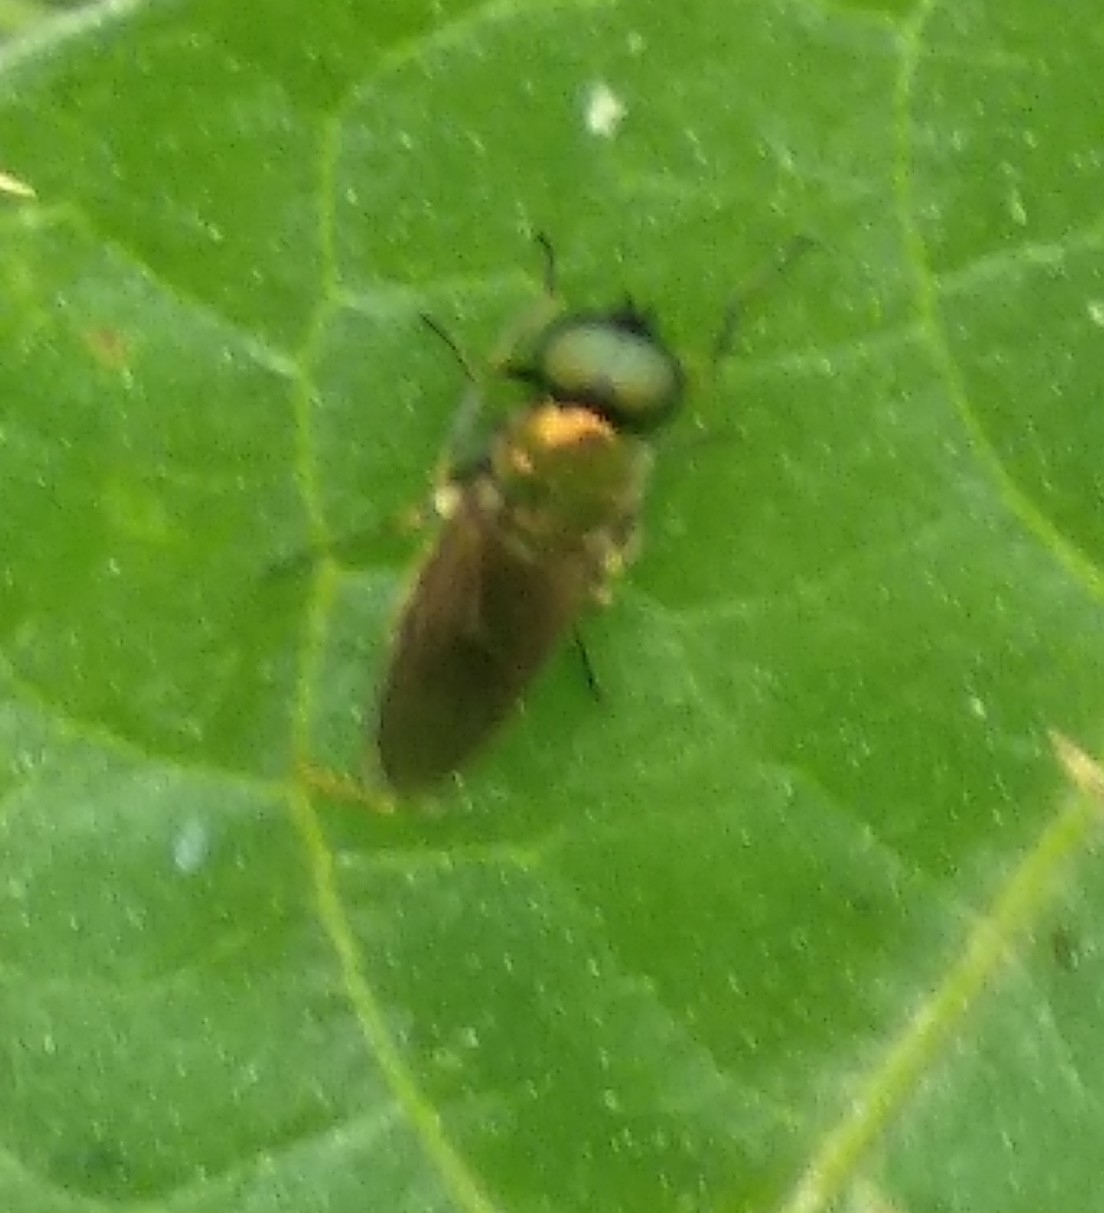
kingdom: Animalia
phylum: Arthropoda
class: Insecta
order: Diptera
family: Stratiomyidae
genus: Chloromyia
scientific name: Chloromyia formosa
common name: Soldier fly
